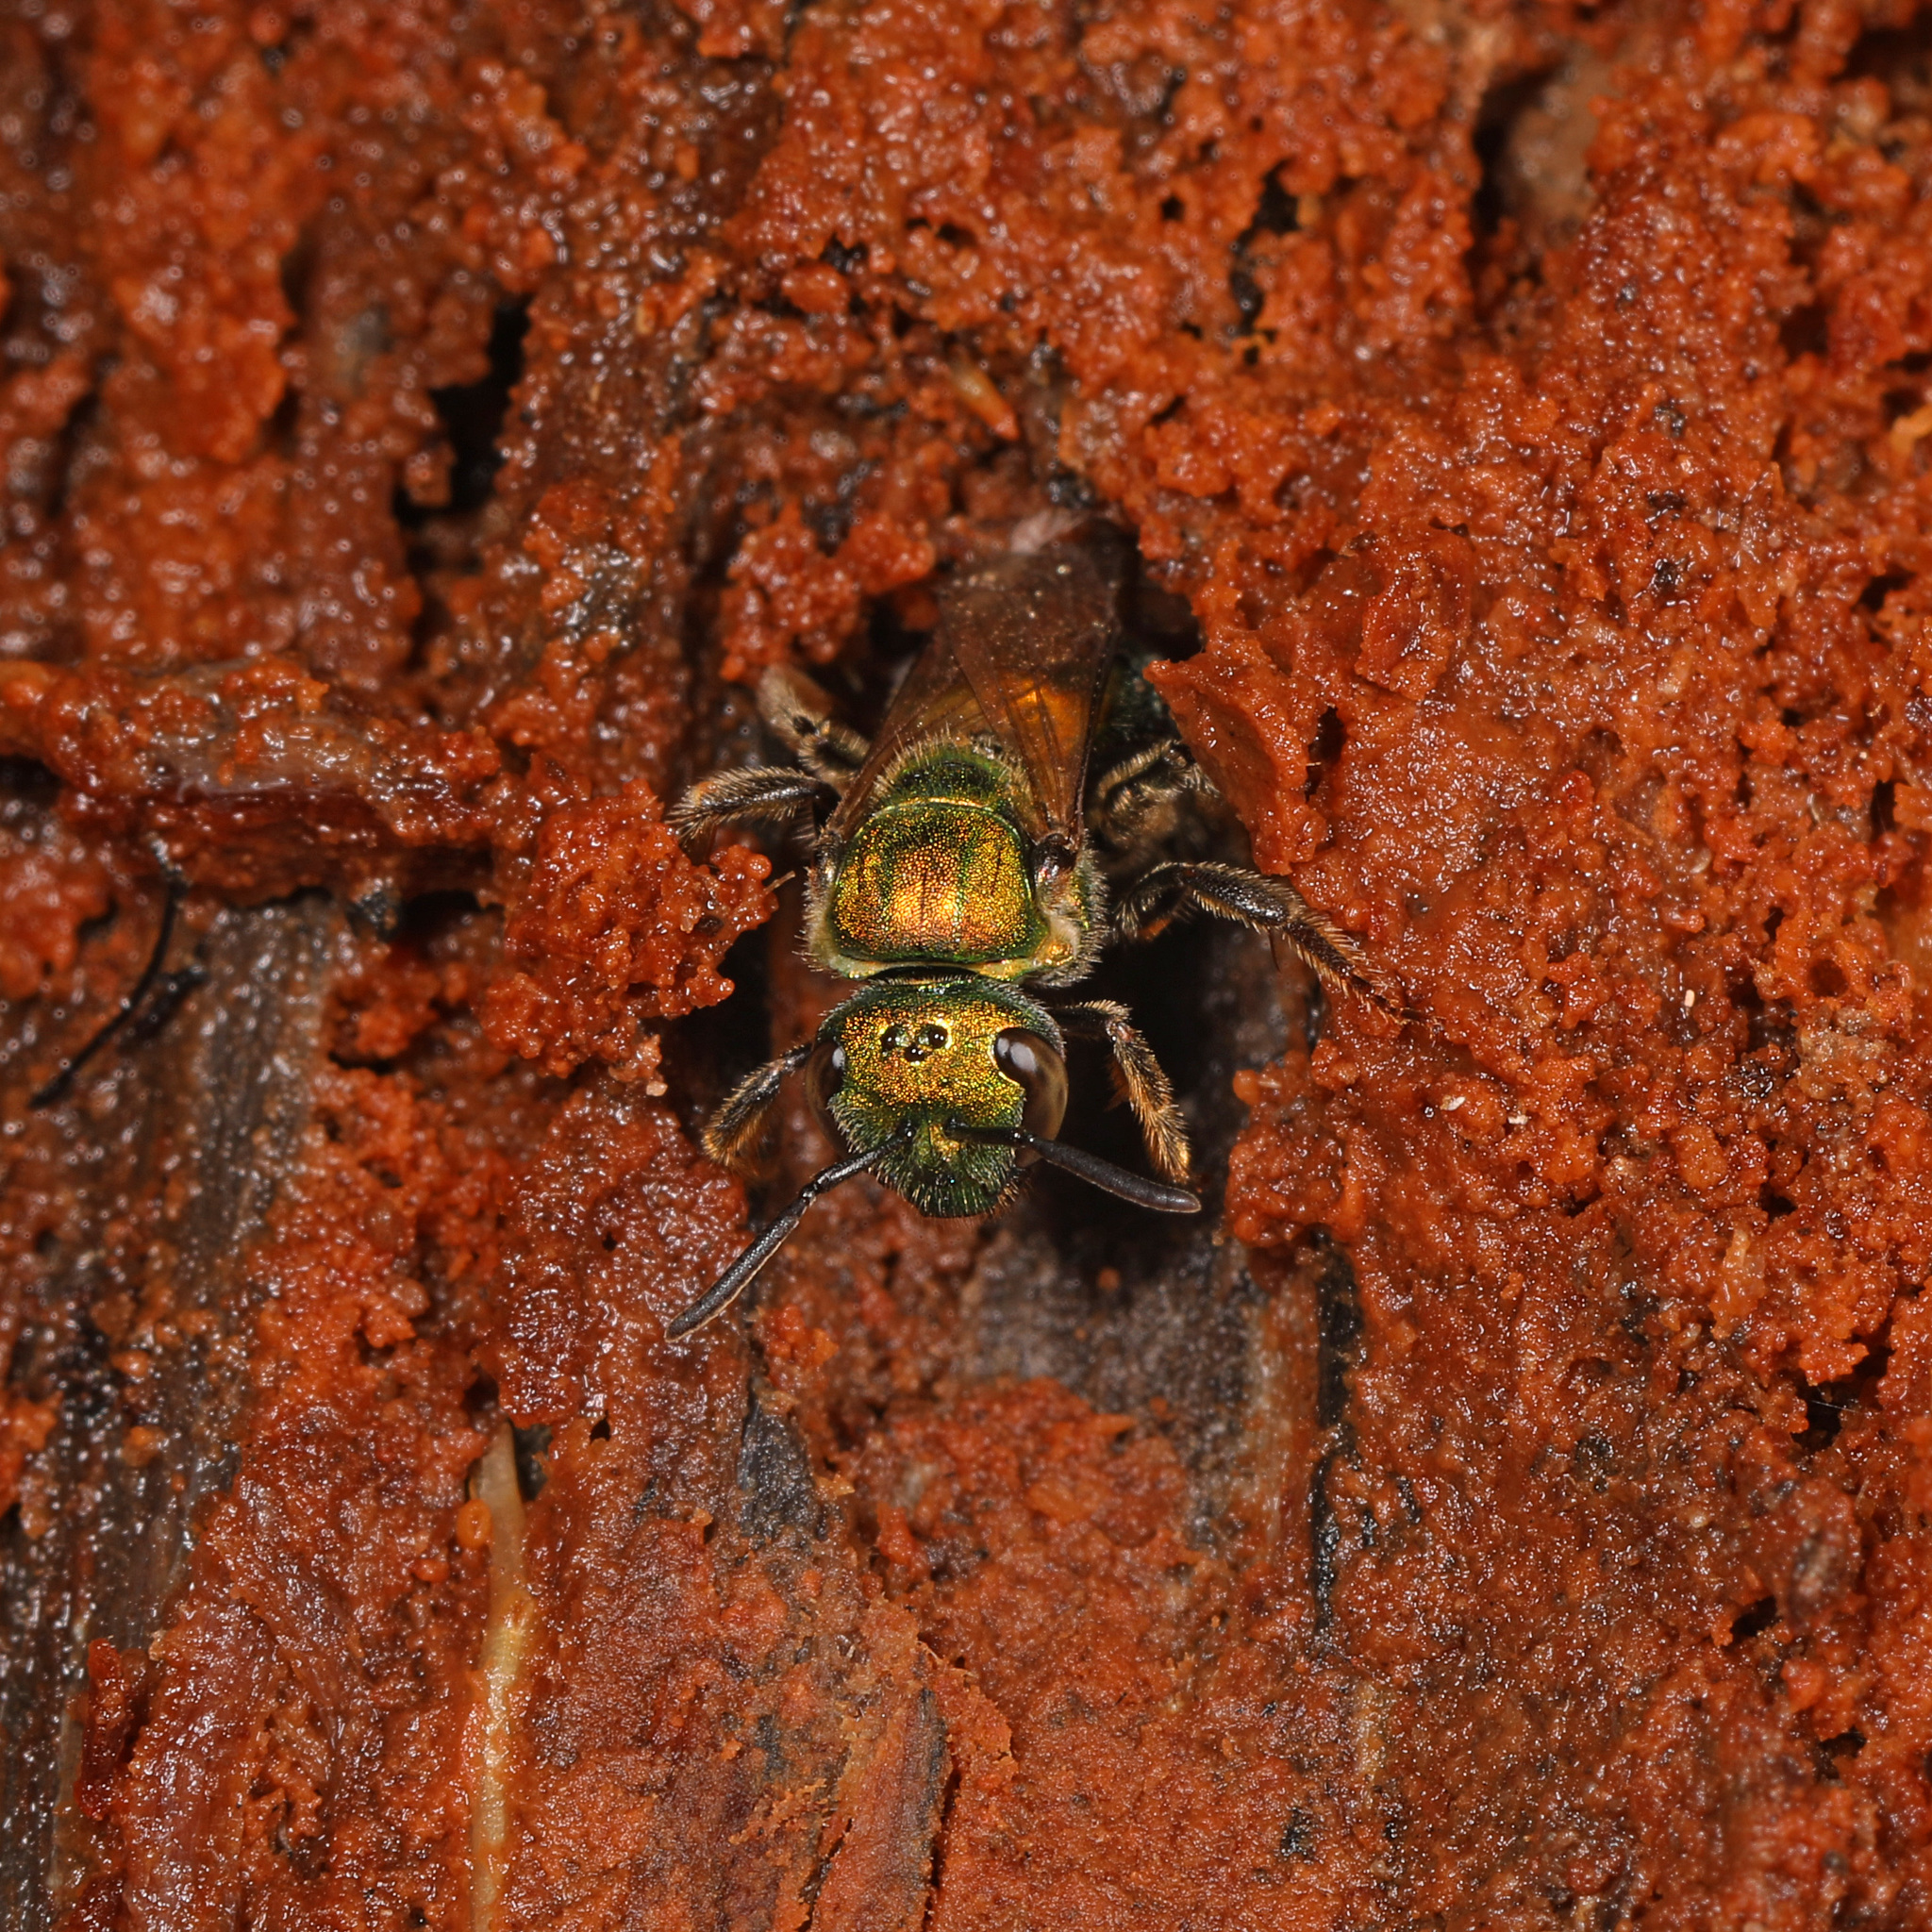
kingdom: Animalia
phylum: Arthropoda
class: Insecta
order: Hymenoptera
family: Halictidae
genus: Augochlora
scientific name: Augochlora pura
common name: Pure green sweat bee
